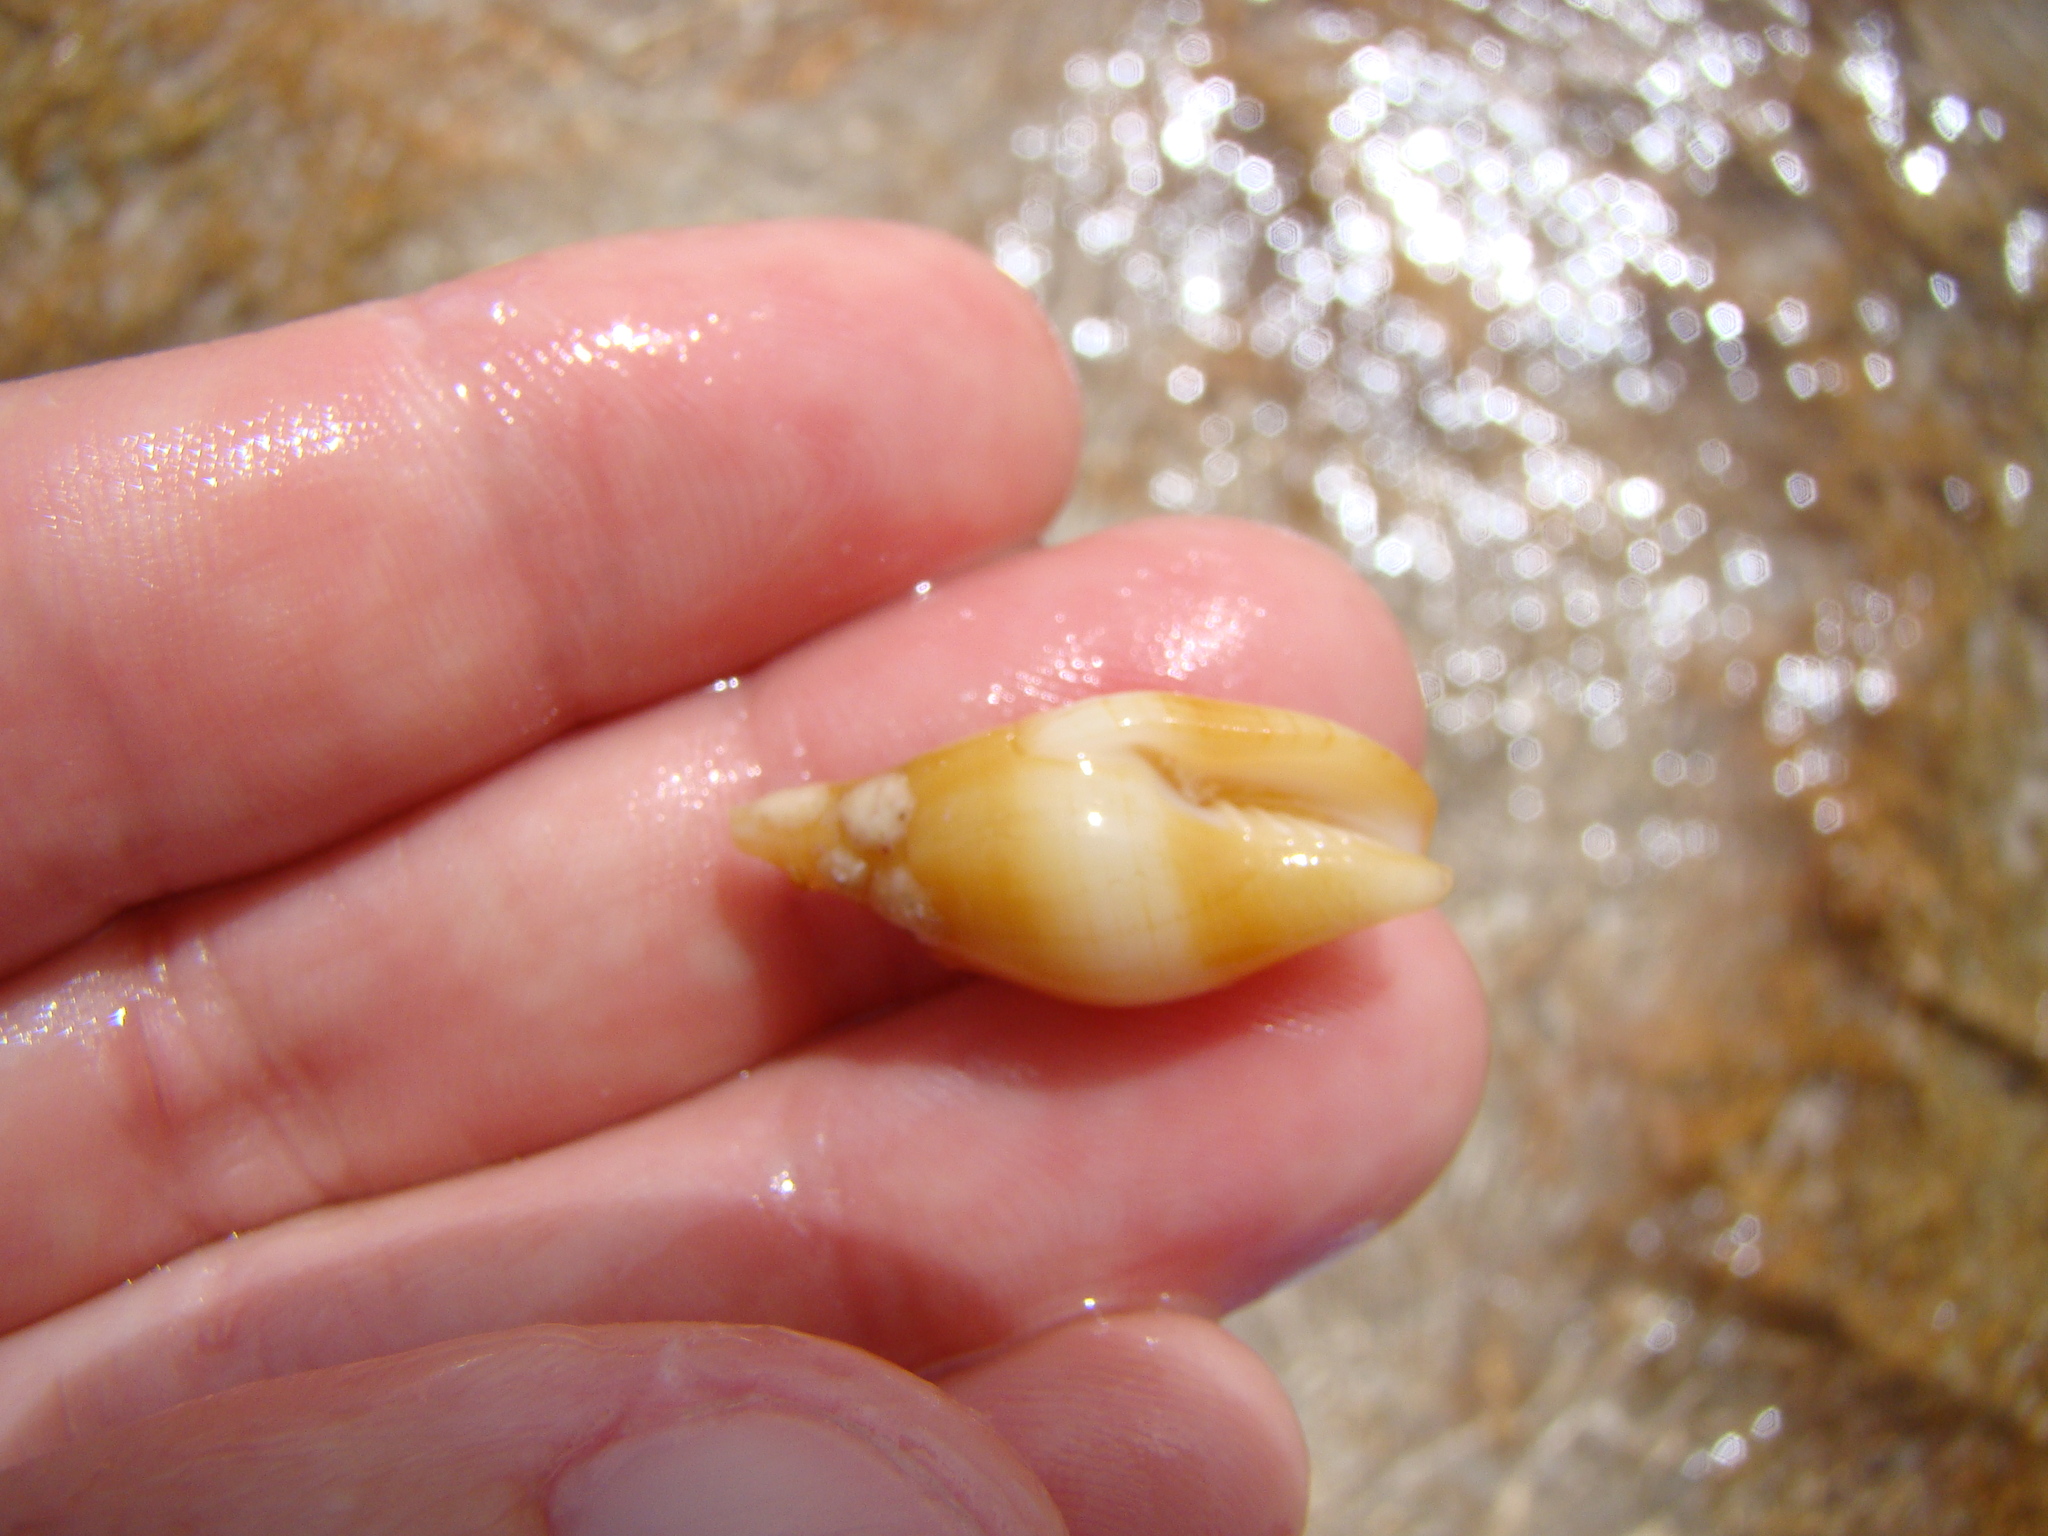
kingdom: Animalia
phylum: Mollusca
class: Gastropoda
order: Neogastropoda
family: Mitridae
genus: Nebularia
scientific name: Nebularia acuminata
